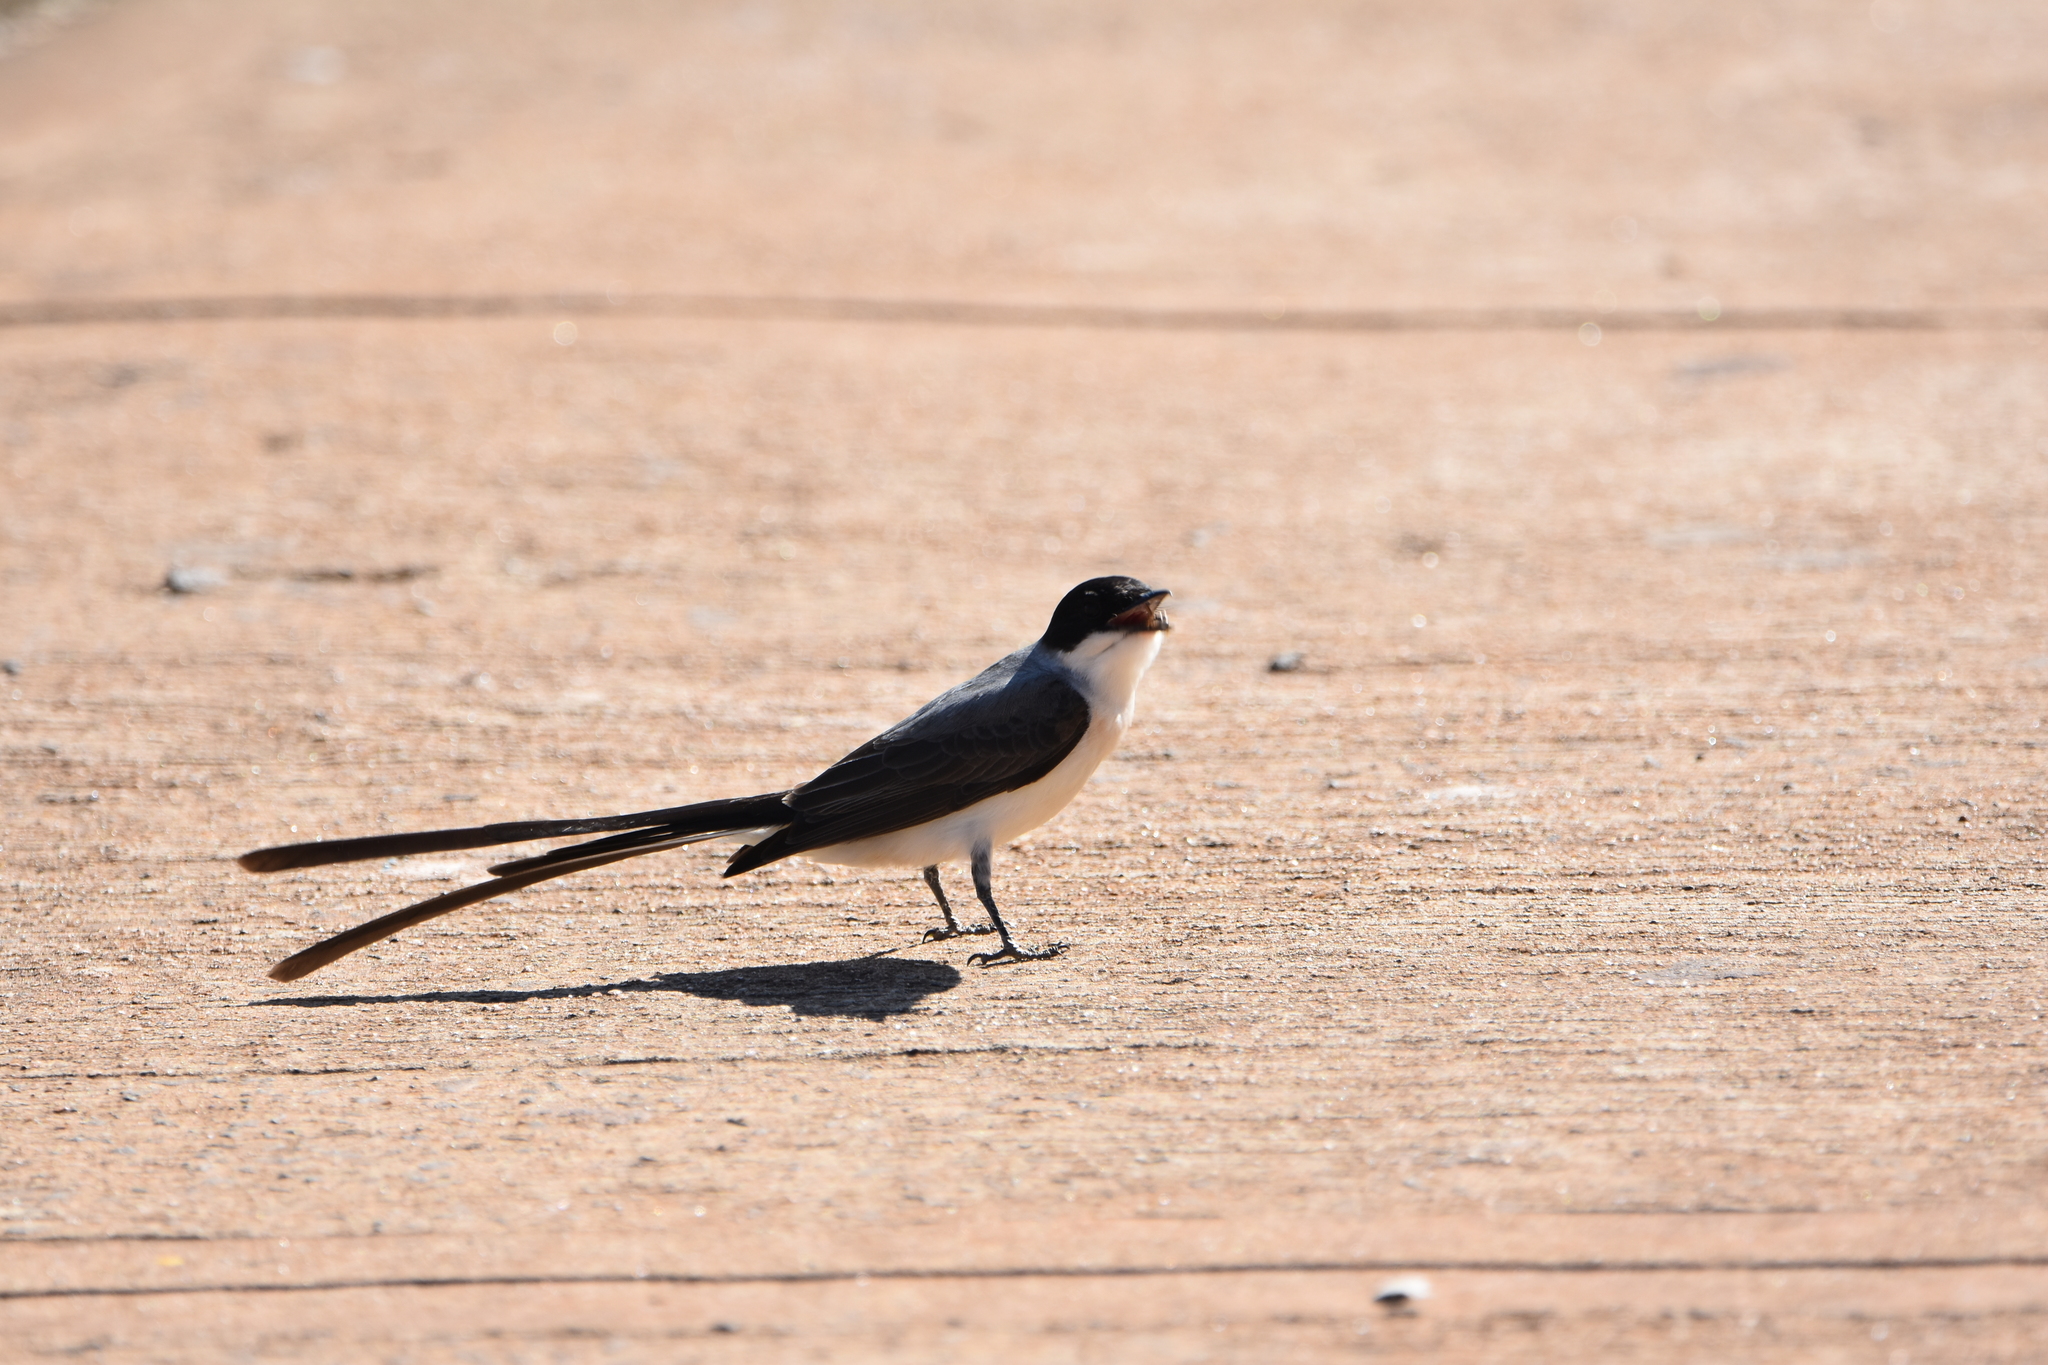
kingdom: Animalia
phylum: Chordata
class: Aves
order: Passeriformes
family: Tyrannidae
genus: Tyrannus
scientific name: Tyrannus savana
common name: Fork-tailed flycatcher
